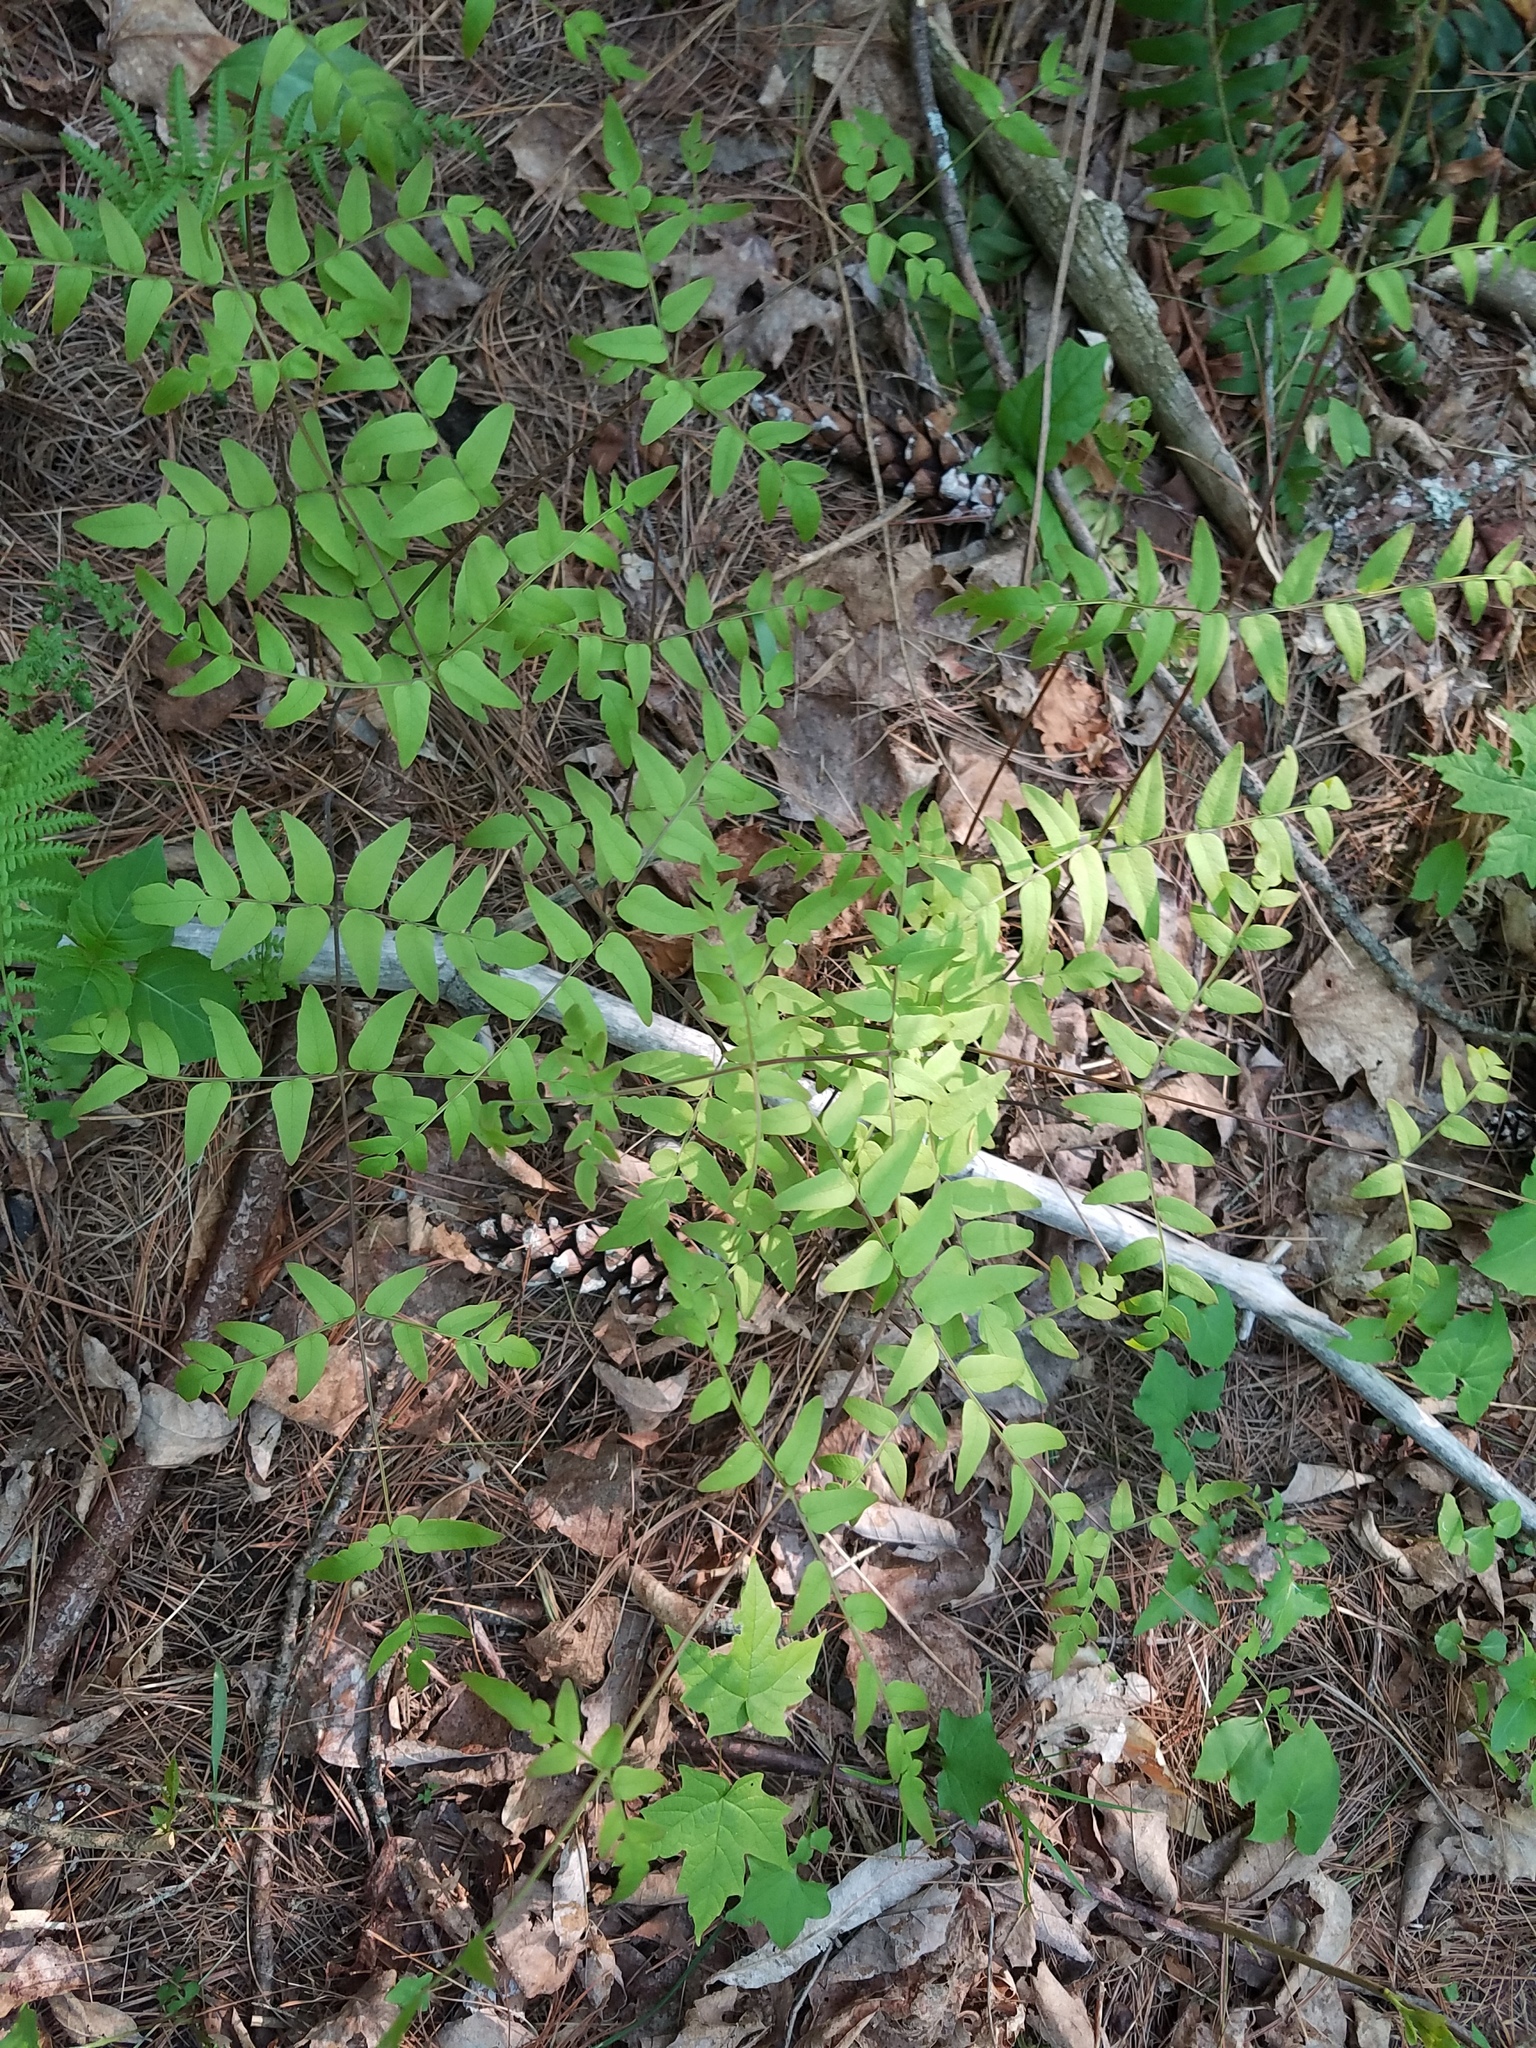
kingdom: Plantae
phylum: Tracheophyta
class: Polypodiopsida
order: Osmundales
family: Osmundaceae
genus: Osmunda
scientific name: Osmunda spectabilis
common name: American royal fern
